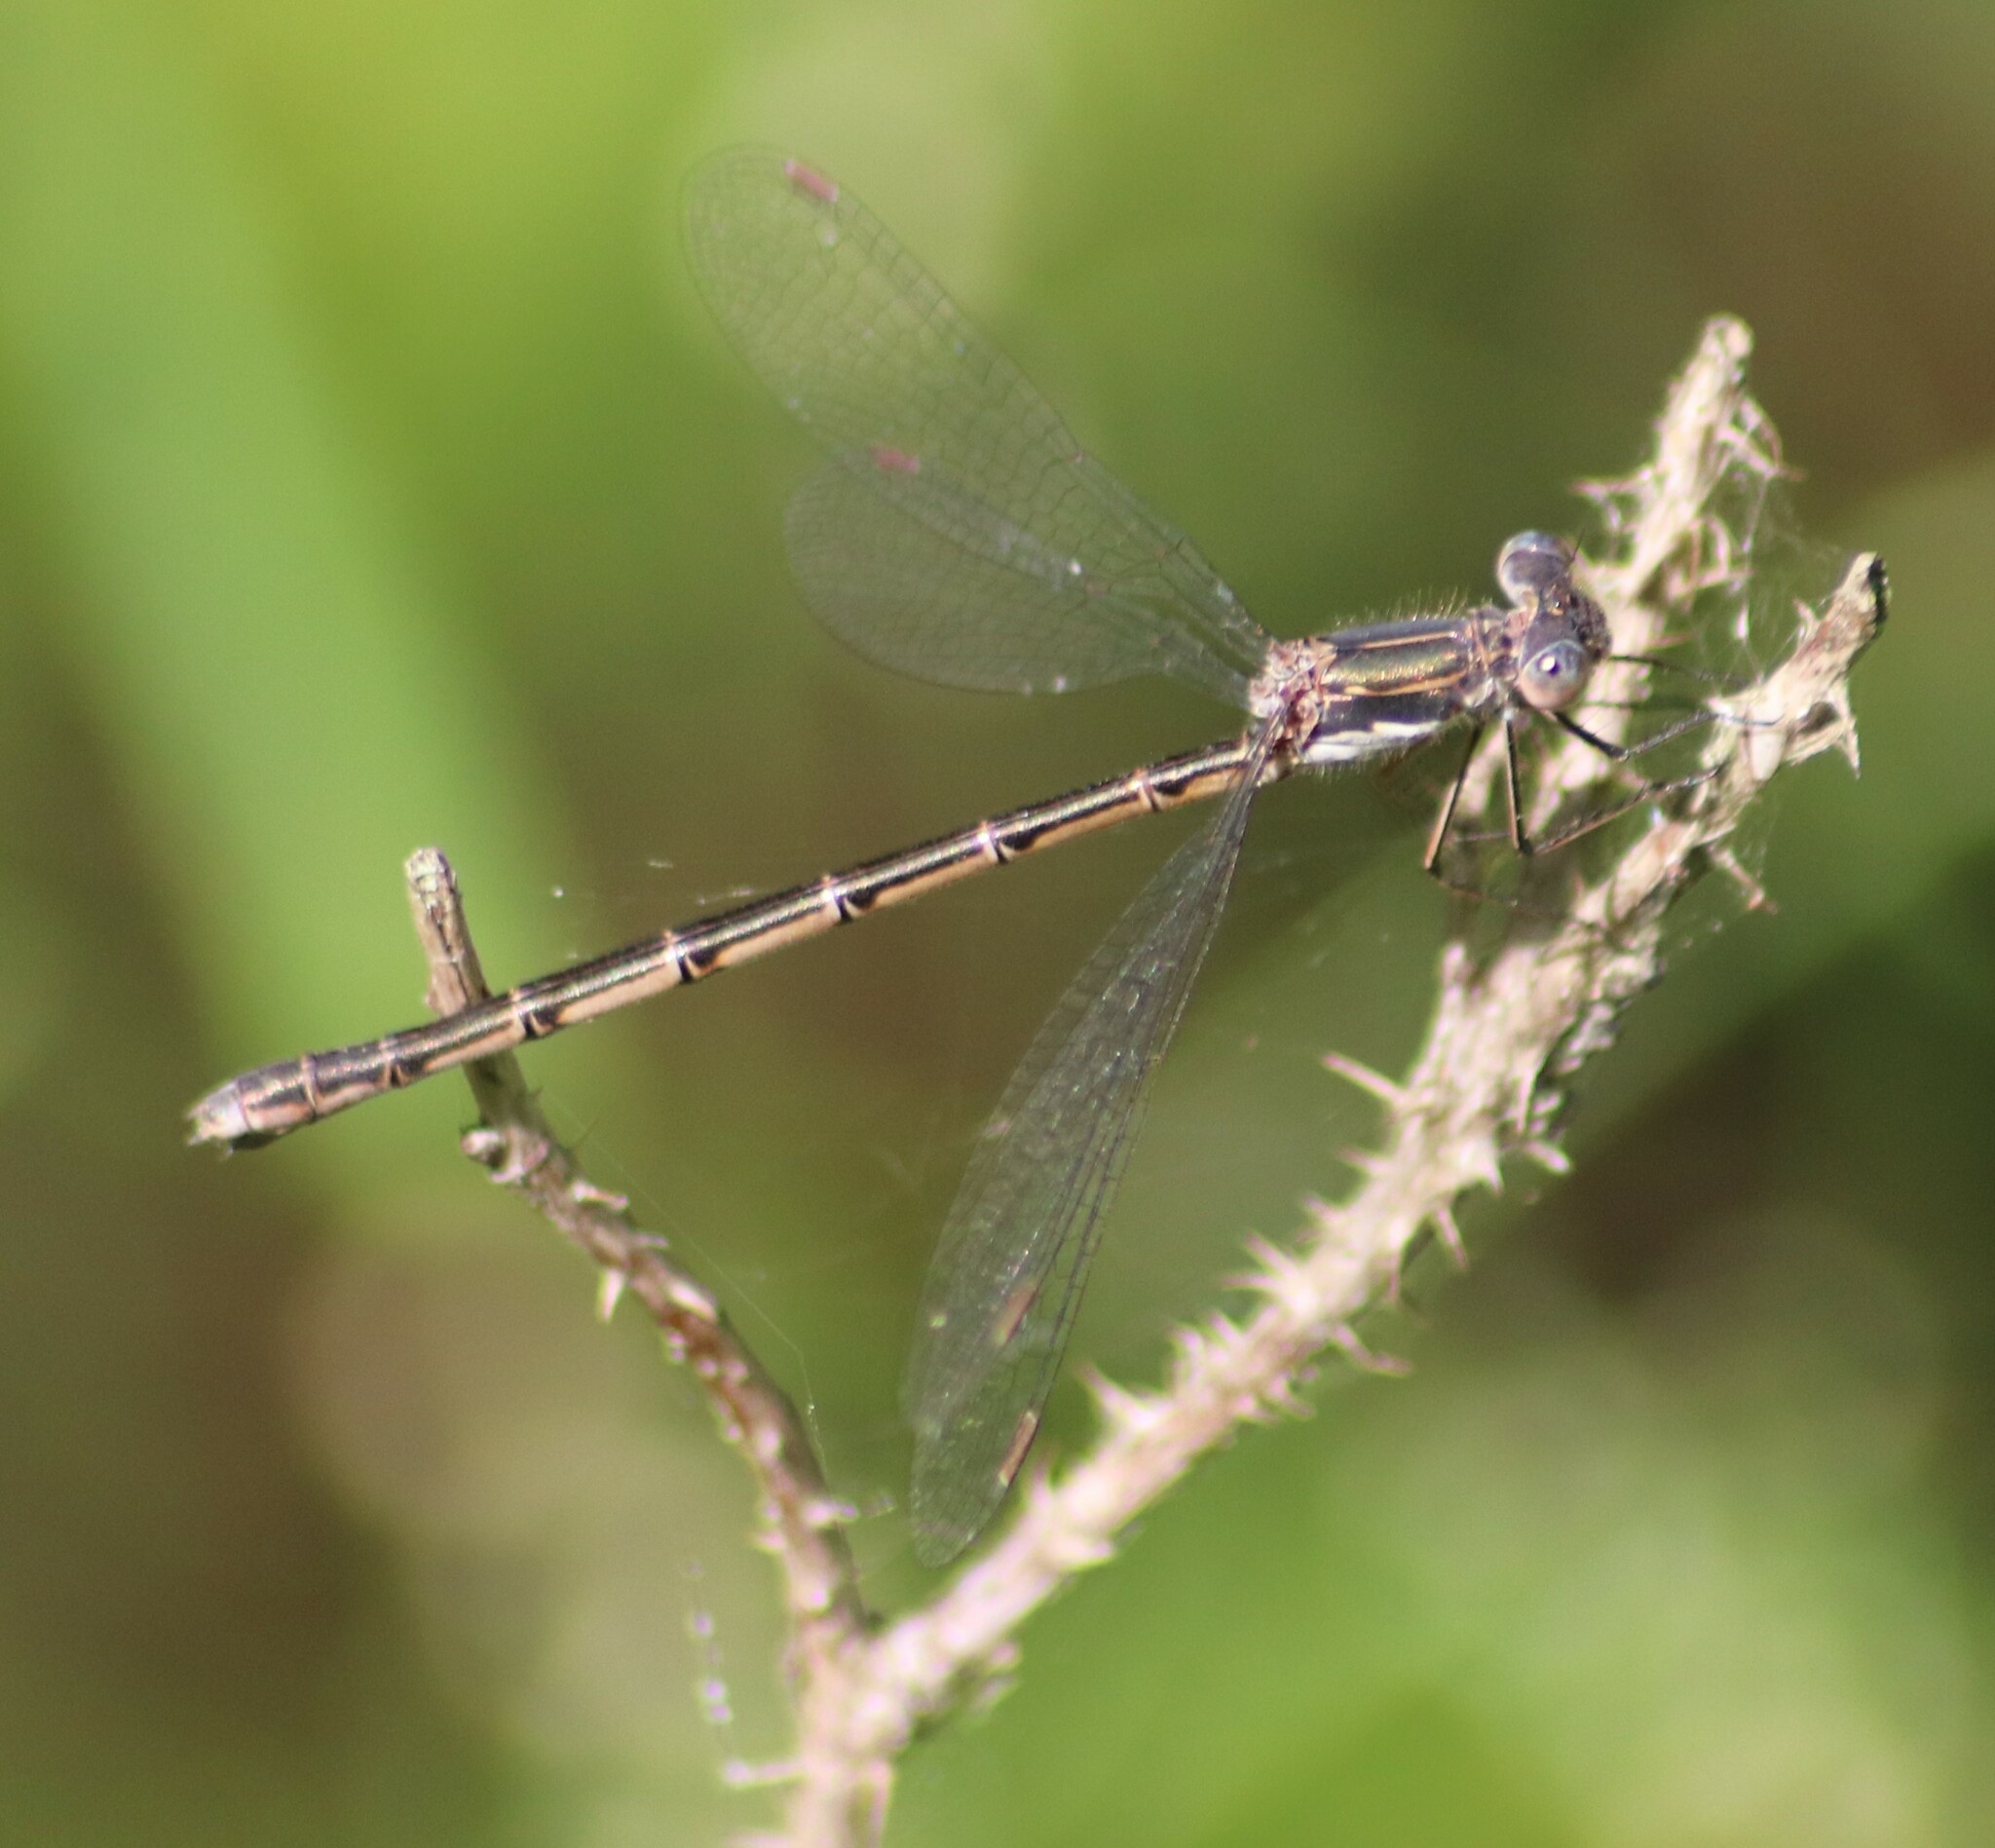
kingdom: Animalia
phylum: Arthropoda
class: Insecta
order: Odonata
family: Lestidae
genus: Lestes
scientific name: Lestes congener
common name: Spotted spreadwing
